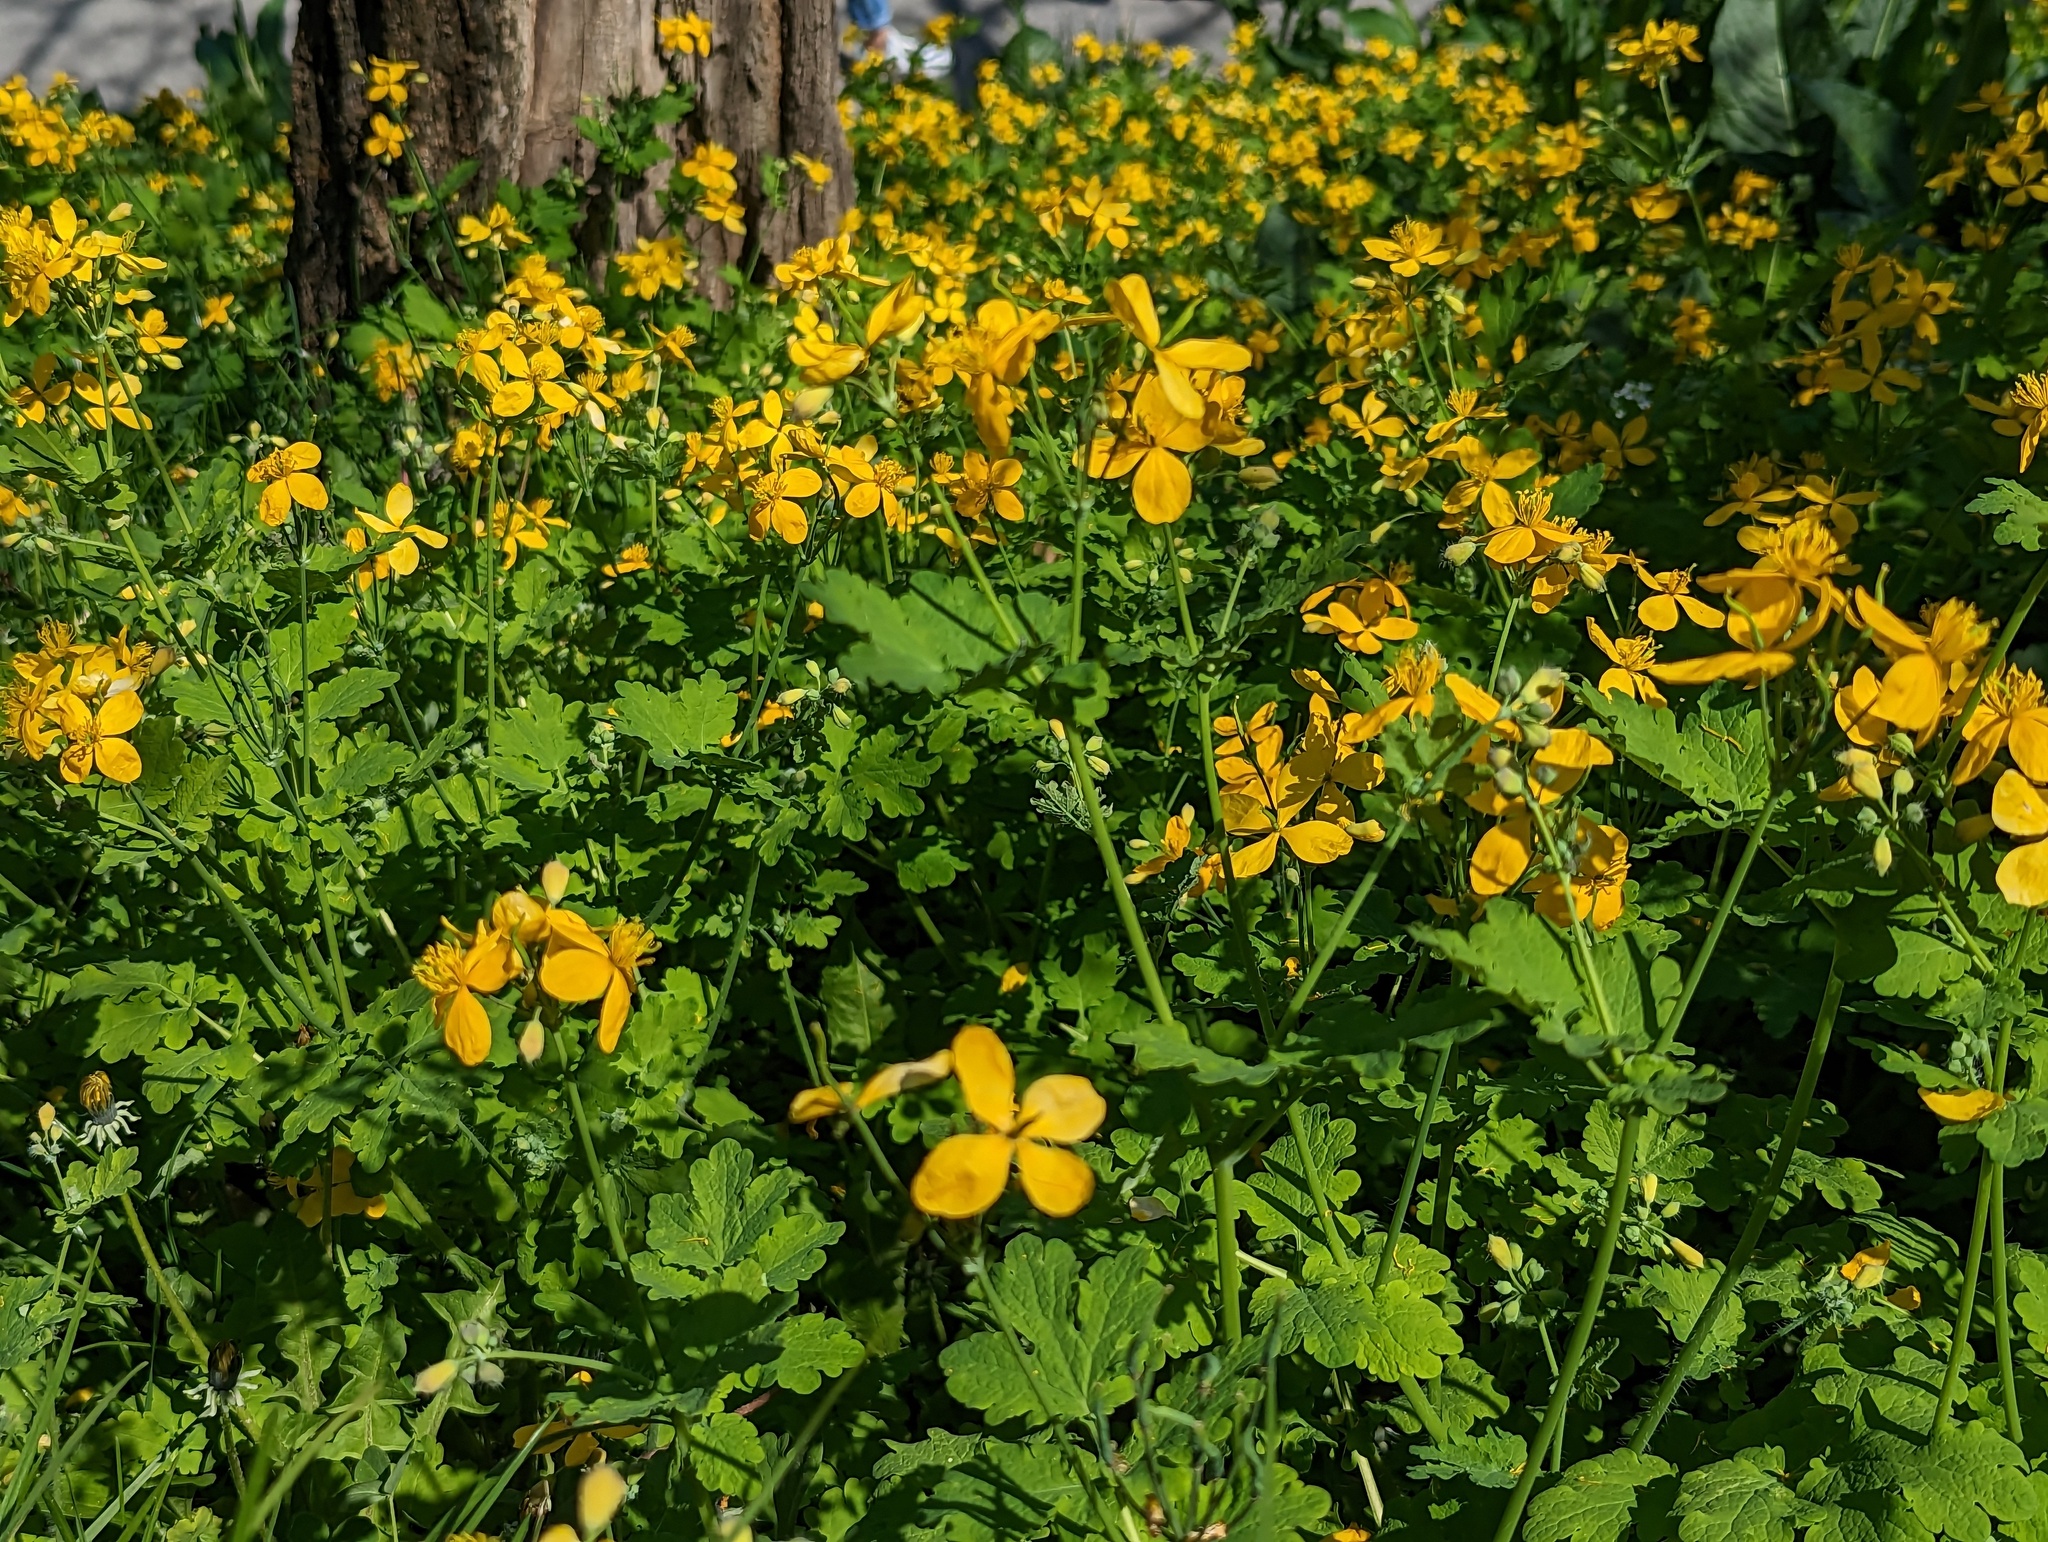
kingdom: Plantae
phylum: Tracheophyta
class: Magnoliopsida
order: Ranunculales
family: Papaveraceae
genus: Chelidonium
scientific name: Chelidonium majus
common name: Greater celandine
